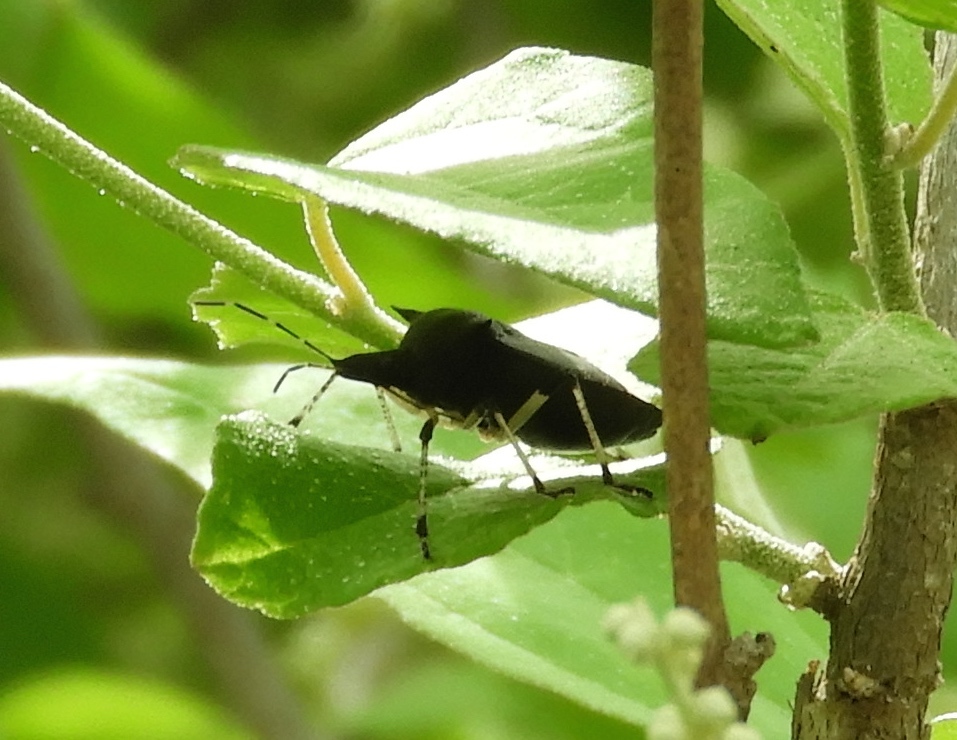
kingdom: Animalia
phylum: Arthropoda
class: Insecta
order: Hemiptera
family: Pentatomidae
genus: Proxys
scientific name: Proxys punctulatus
